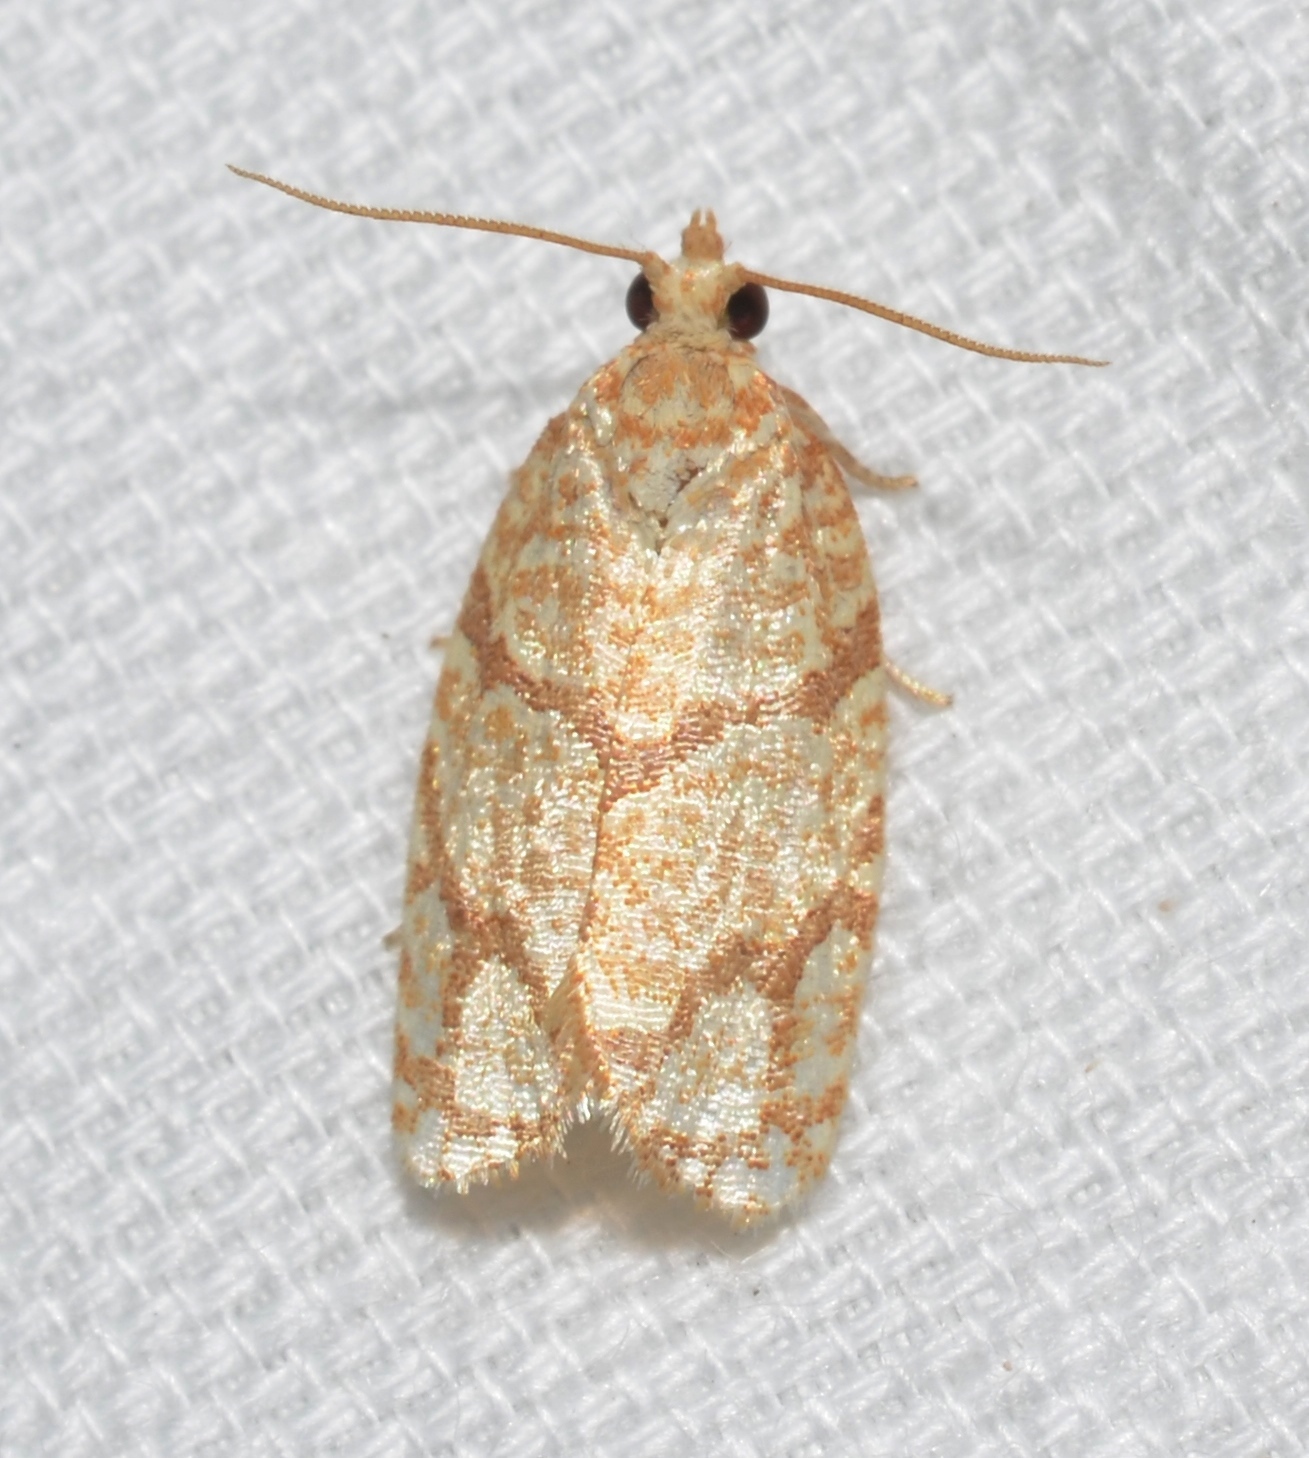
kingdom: Animalia
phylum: Arthropoda
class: Insecta
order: Lepidoptera
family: Tortricidae
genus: Argyrotaenia
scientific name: Argyrotaenia quercifoliana
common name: Yellow-winged oak leafroller moth
